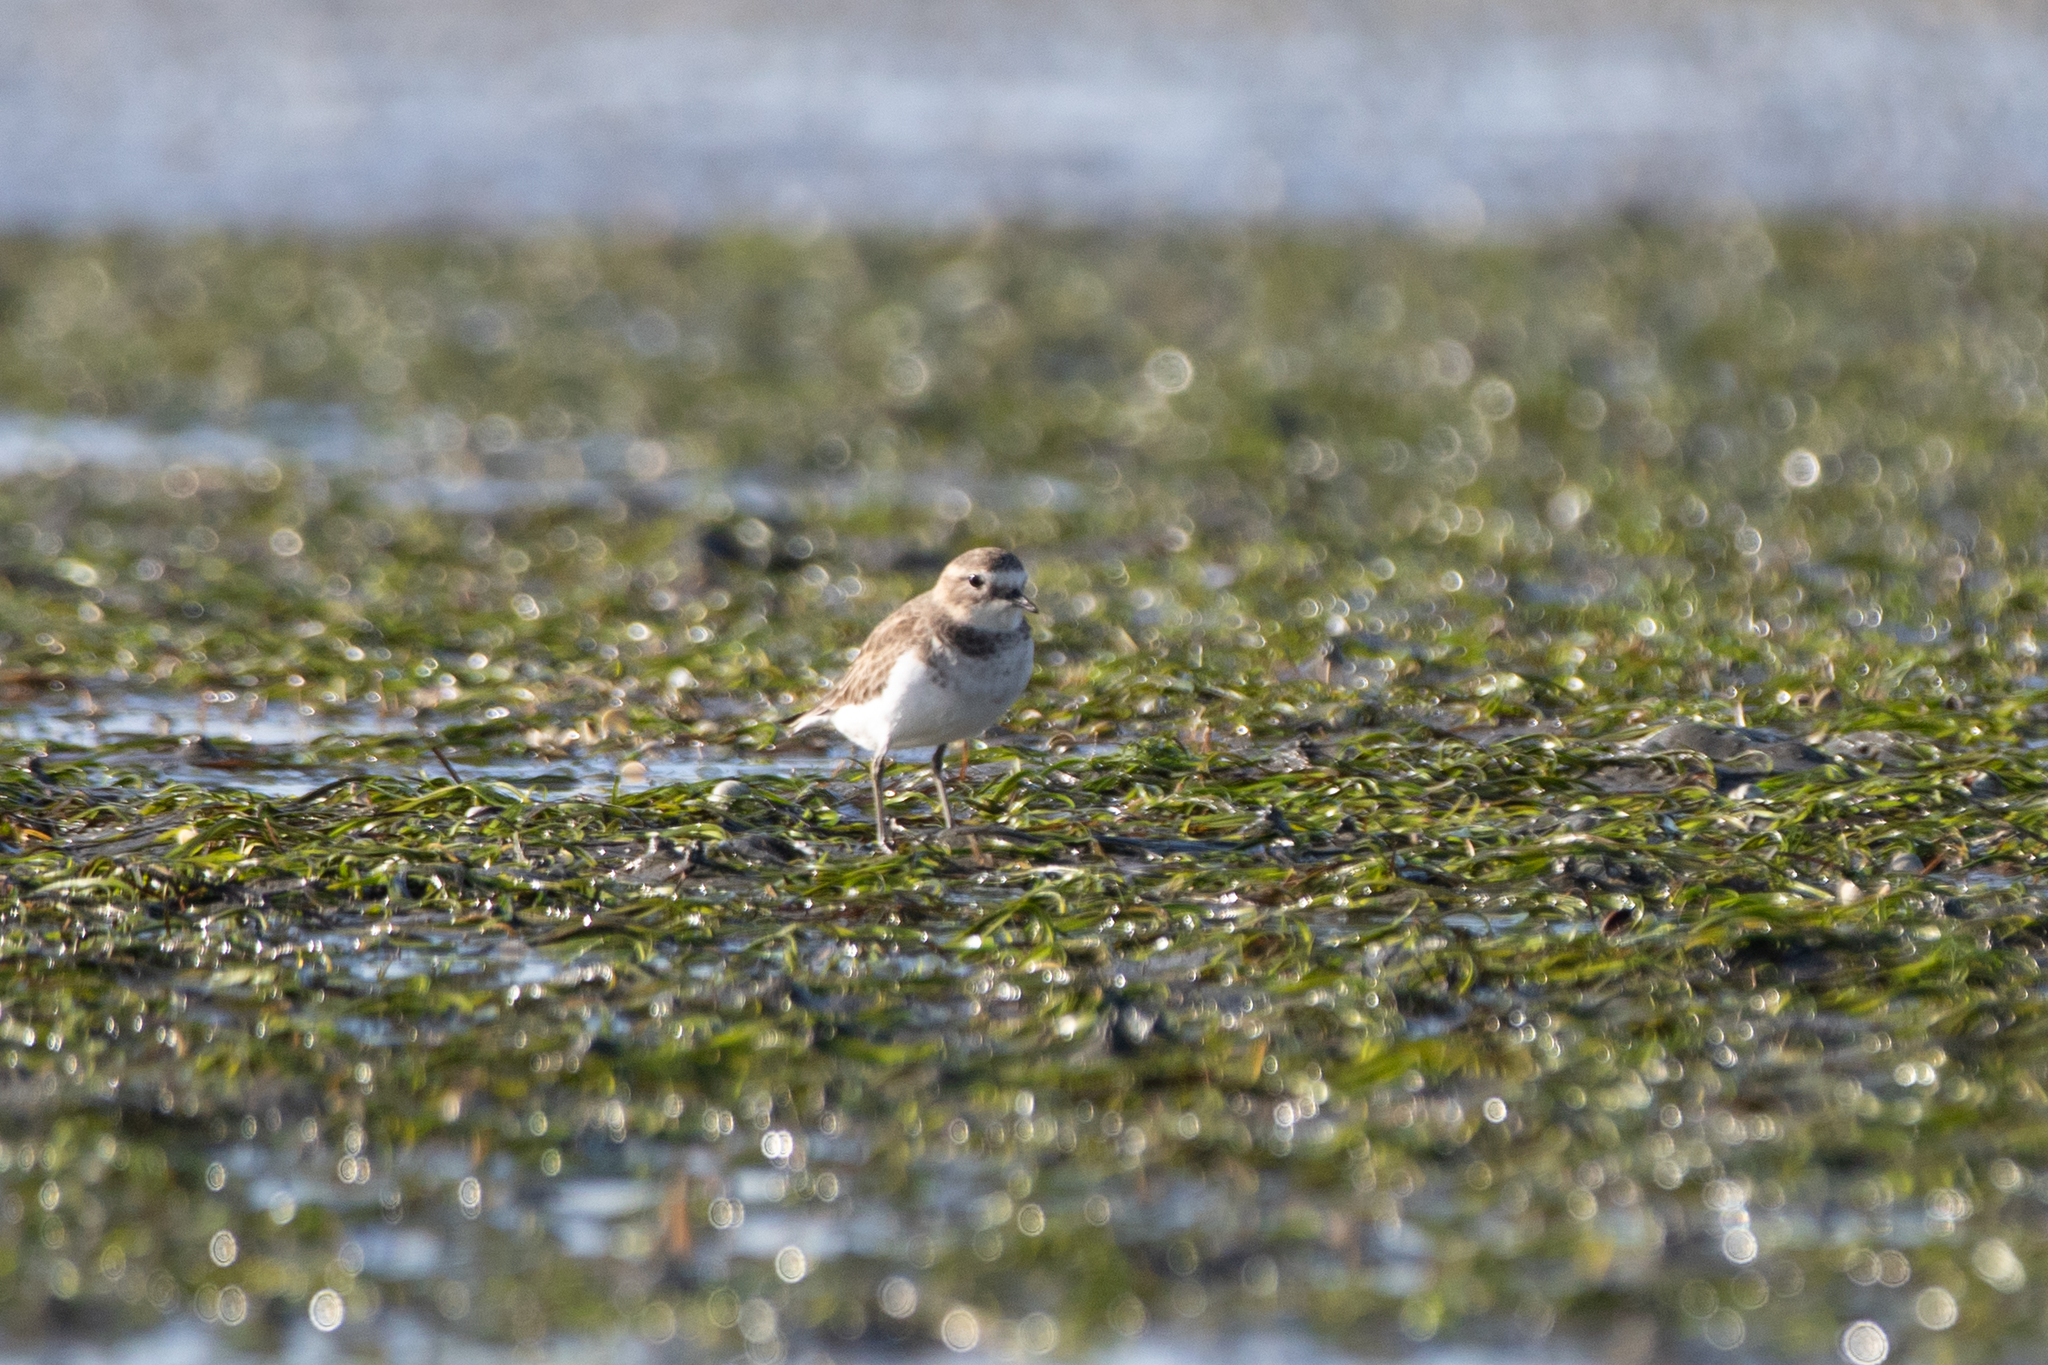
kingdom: Animalia
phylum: Chordata
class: Aves
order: Charadriiformes
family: Charadriidae
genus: Anarhynchus
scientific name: Anarhynchus
